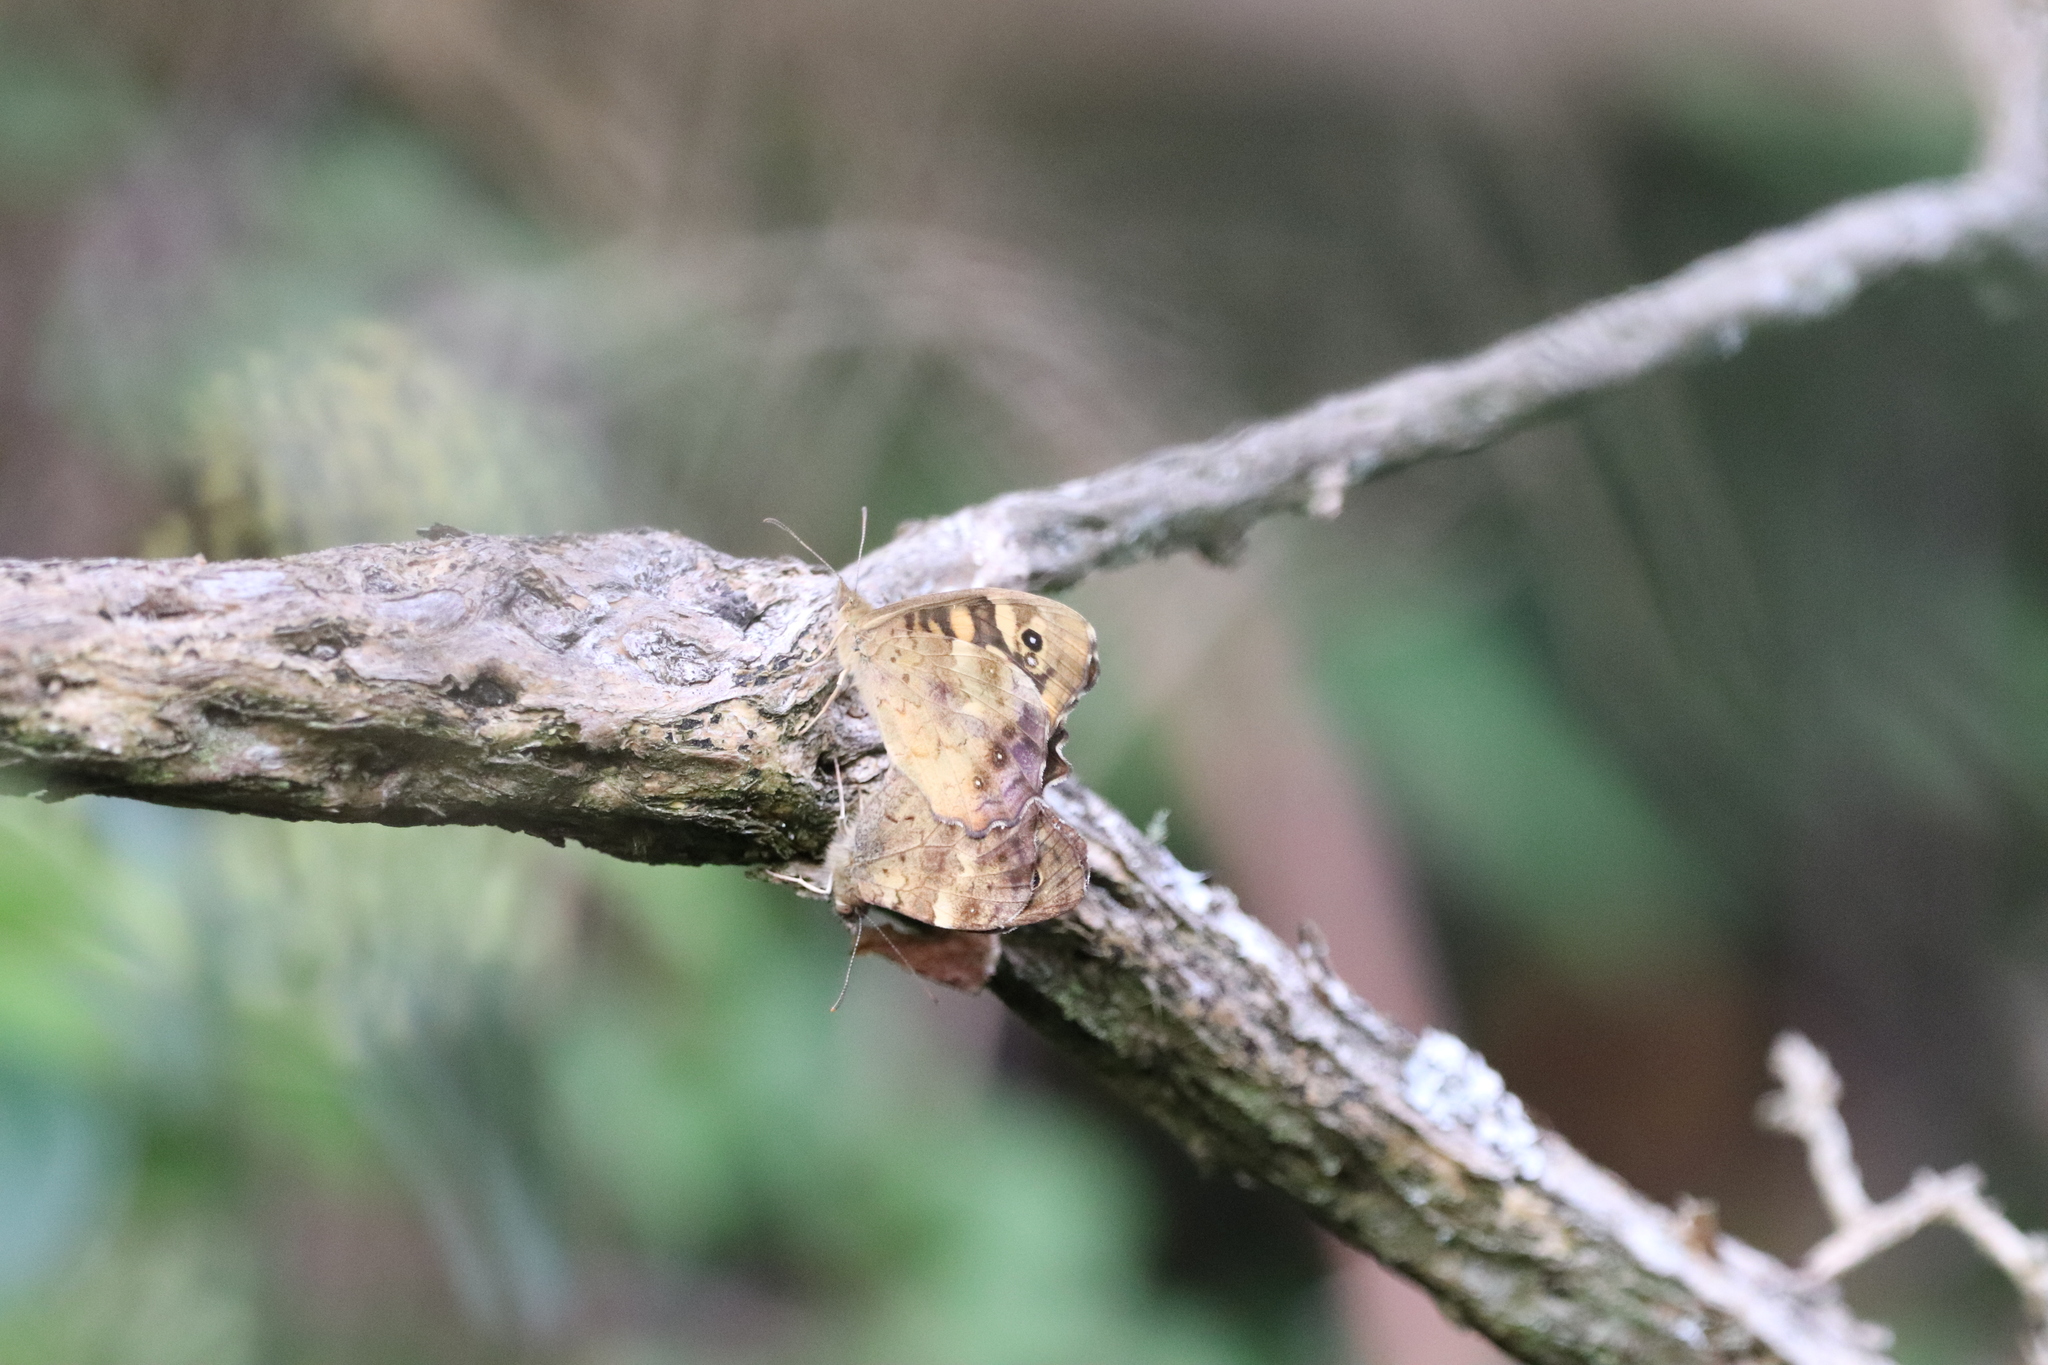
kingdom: Animalia
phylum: Arthropoda
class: Insecta
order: Lepidoptera
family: Nymphalidae
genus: Pararge
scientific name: Pararge aegeria
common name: Speckled wood
